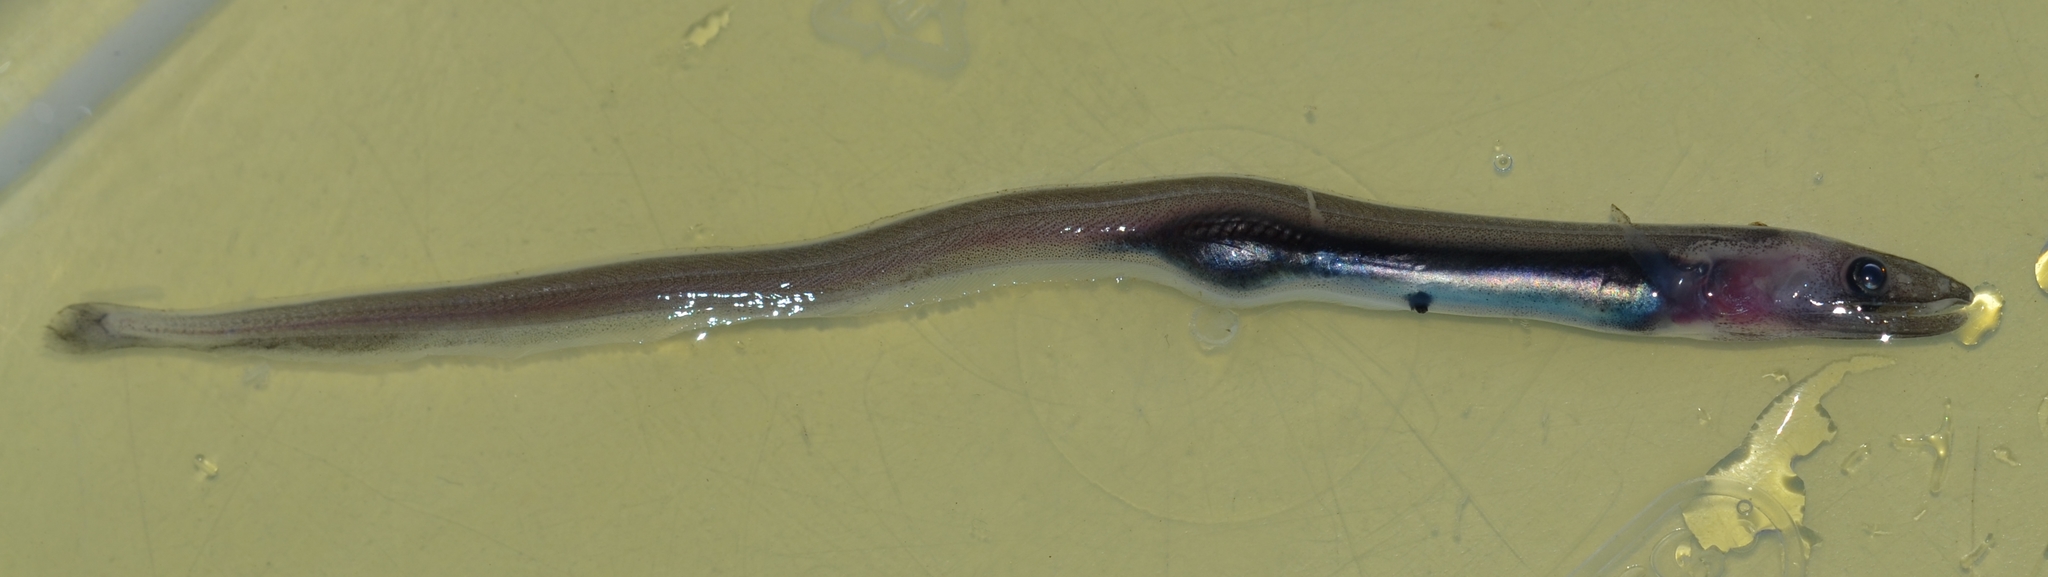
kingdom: Animalia
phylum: Chordata
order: Anguilliformes
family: Synaphobranchidae
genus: Synaphobranchus
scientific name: Synaphobranchus kaupii
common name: Northern cutthroat eel
